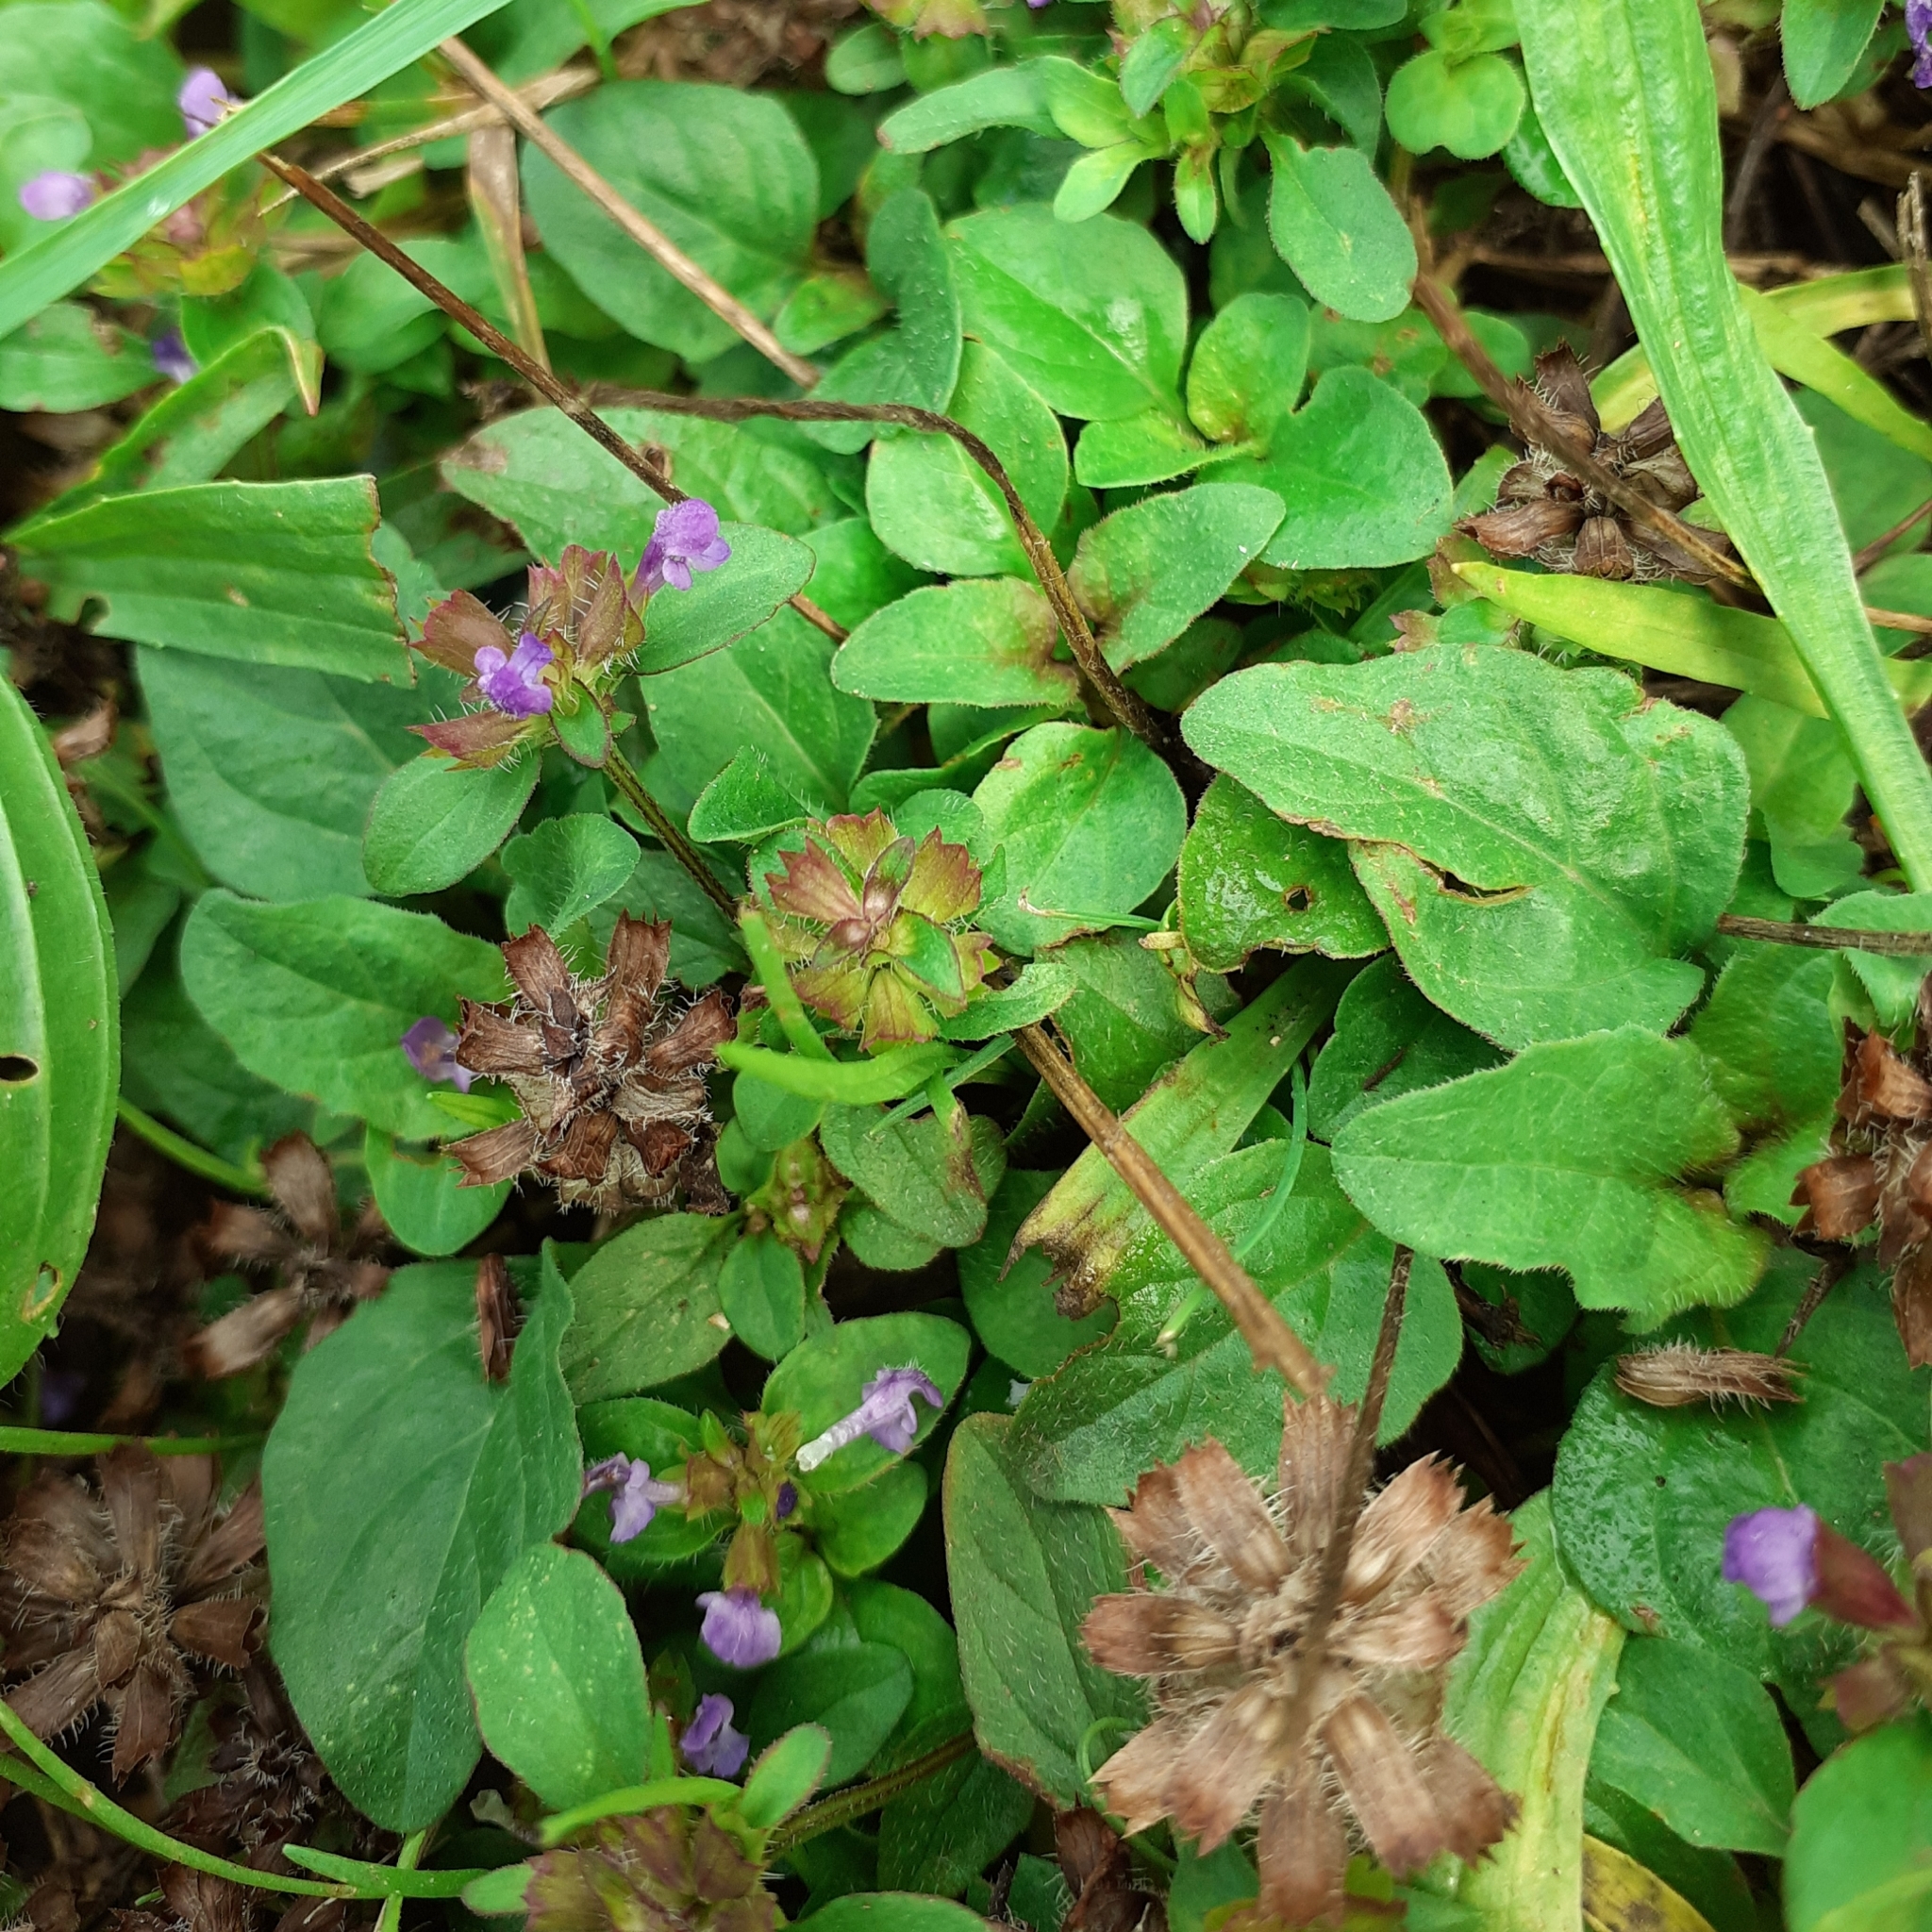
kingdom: Plantae
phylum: Tracheophyta
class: Magnoliopsida
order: Lamiales
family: Lamiaceae
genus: Prunella
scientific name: Prunella vulgaris
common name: Heal-all
